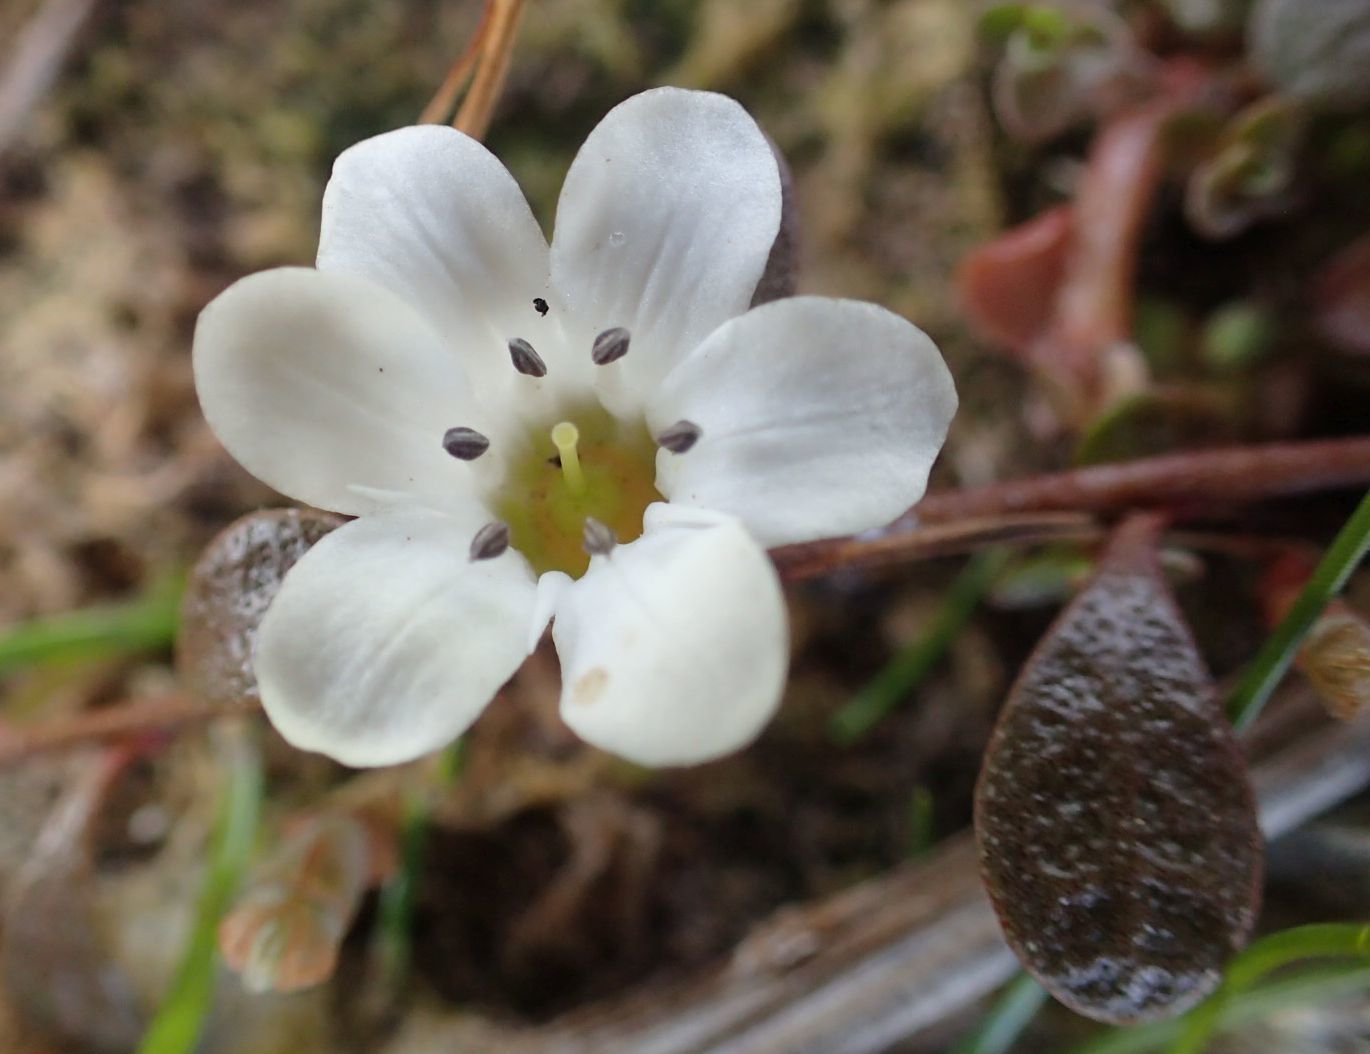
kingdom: Plantae
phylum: Tracheophyta
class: Magnoliopsida
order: Ericales
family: Primulaceae
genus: Samolus
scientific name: Samolus repens
